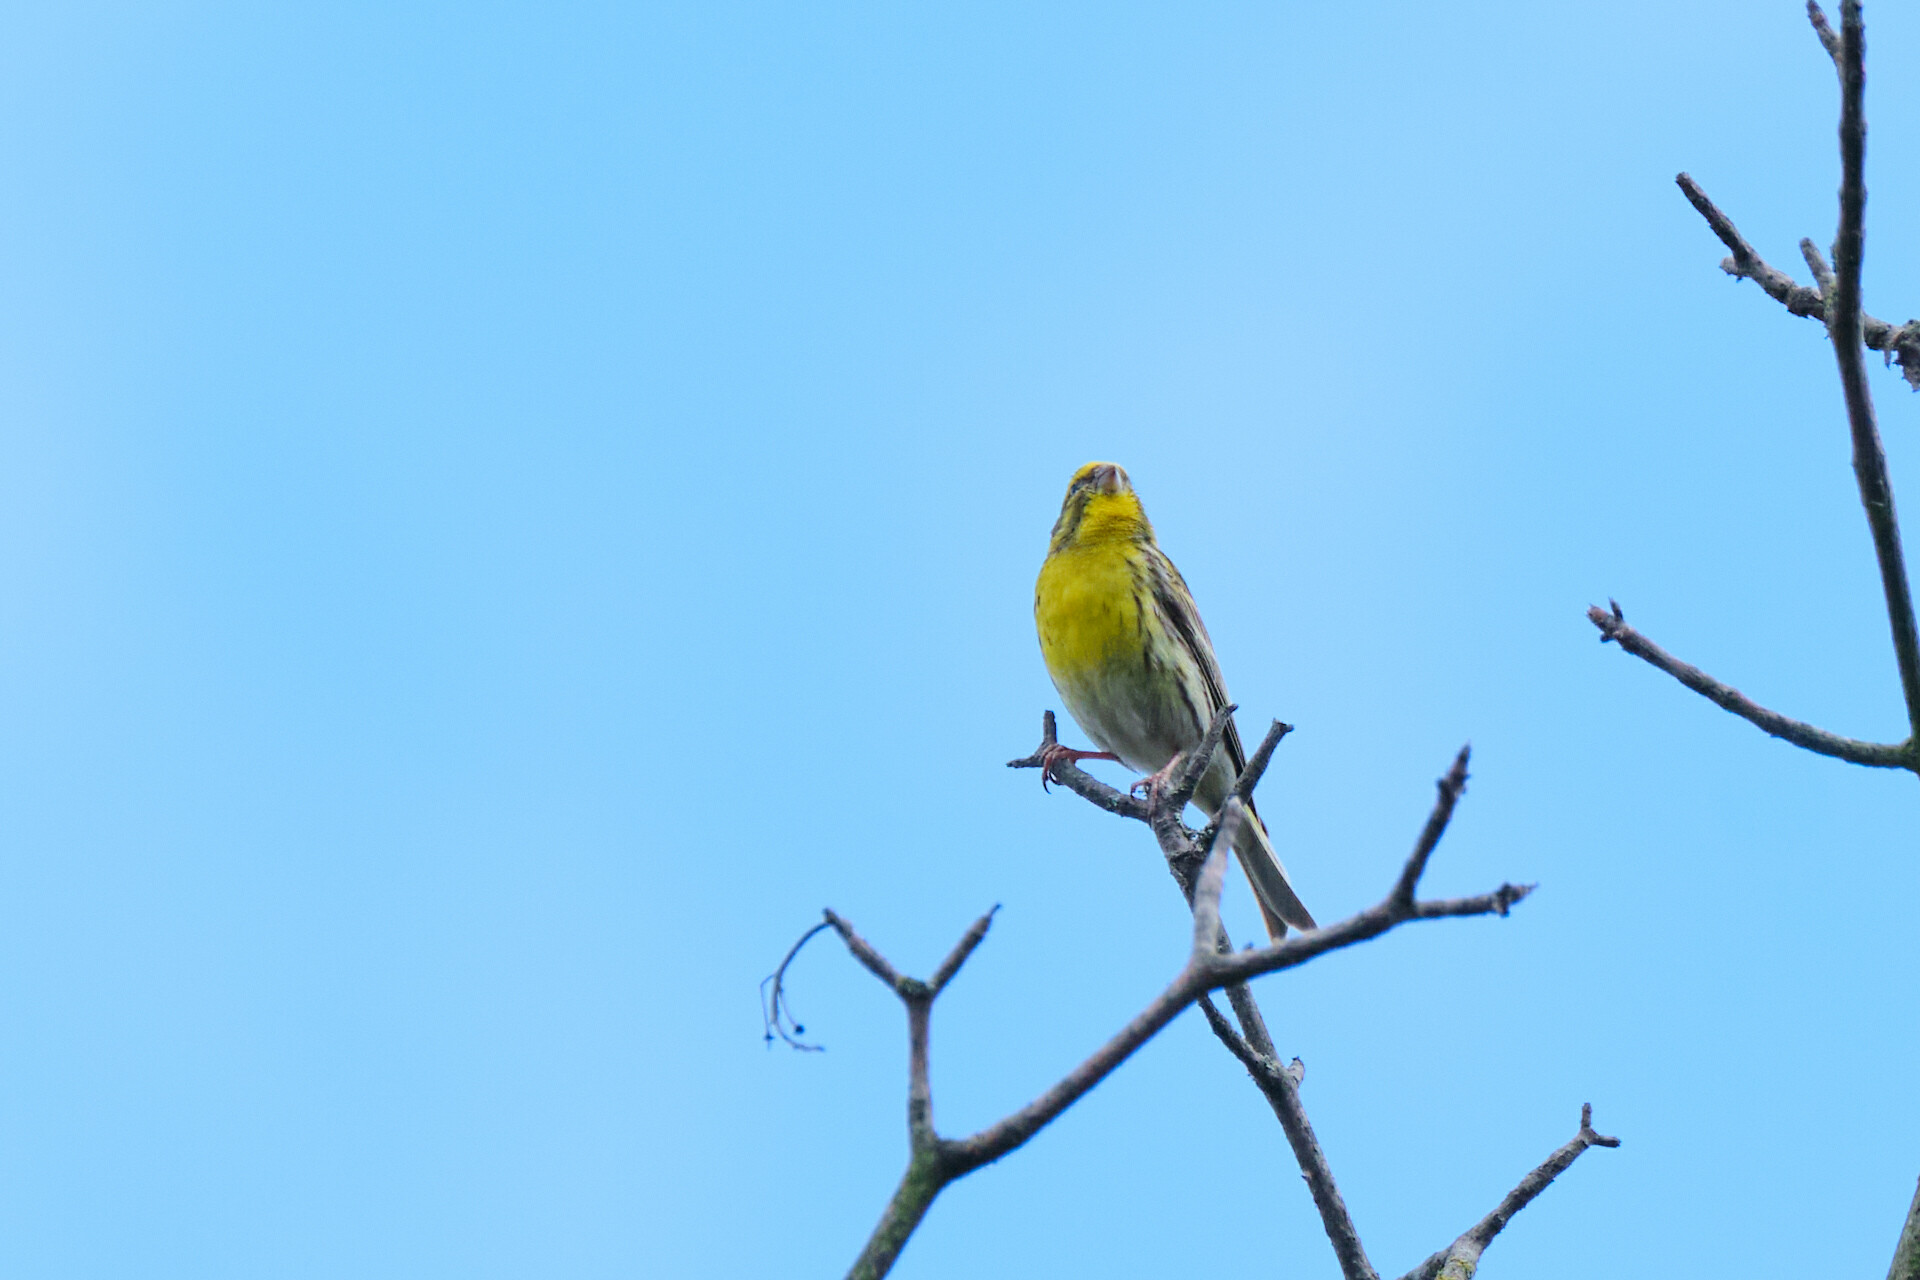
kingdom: Animalia
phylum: Chordata
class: Aves
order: Passeriformes
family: Fringillidae
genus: Serinus
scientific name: Serinus serinus
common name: European serin
